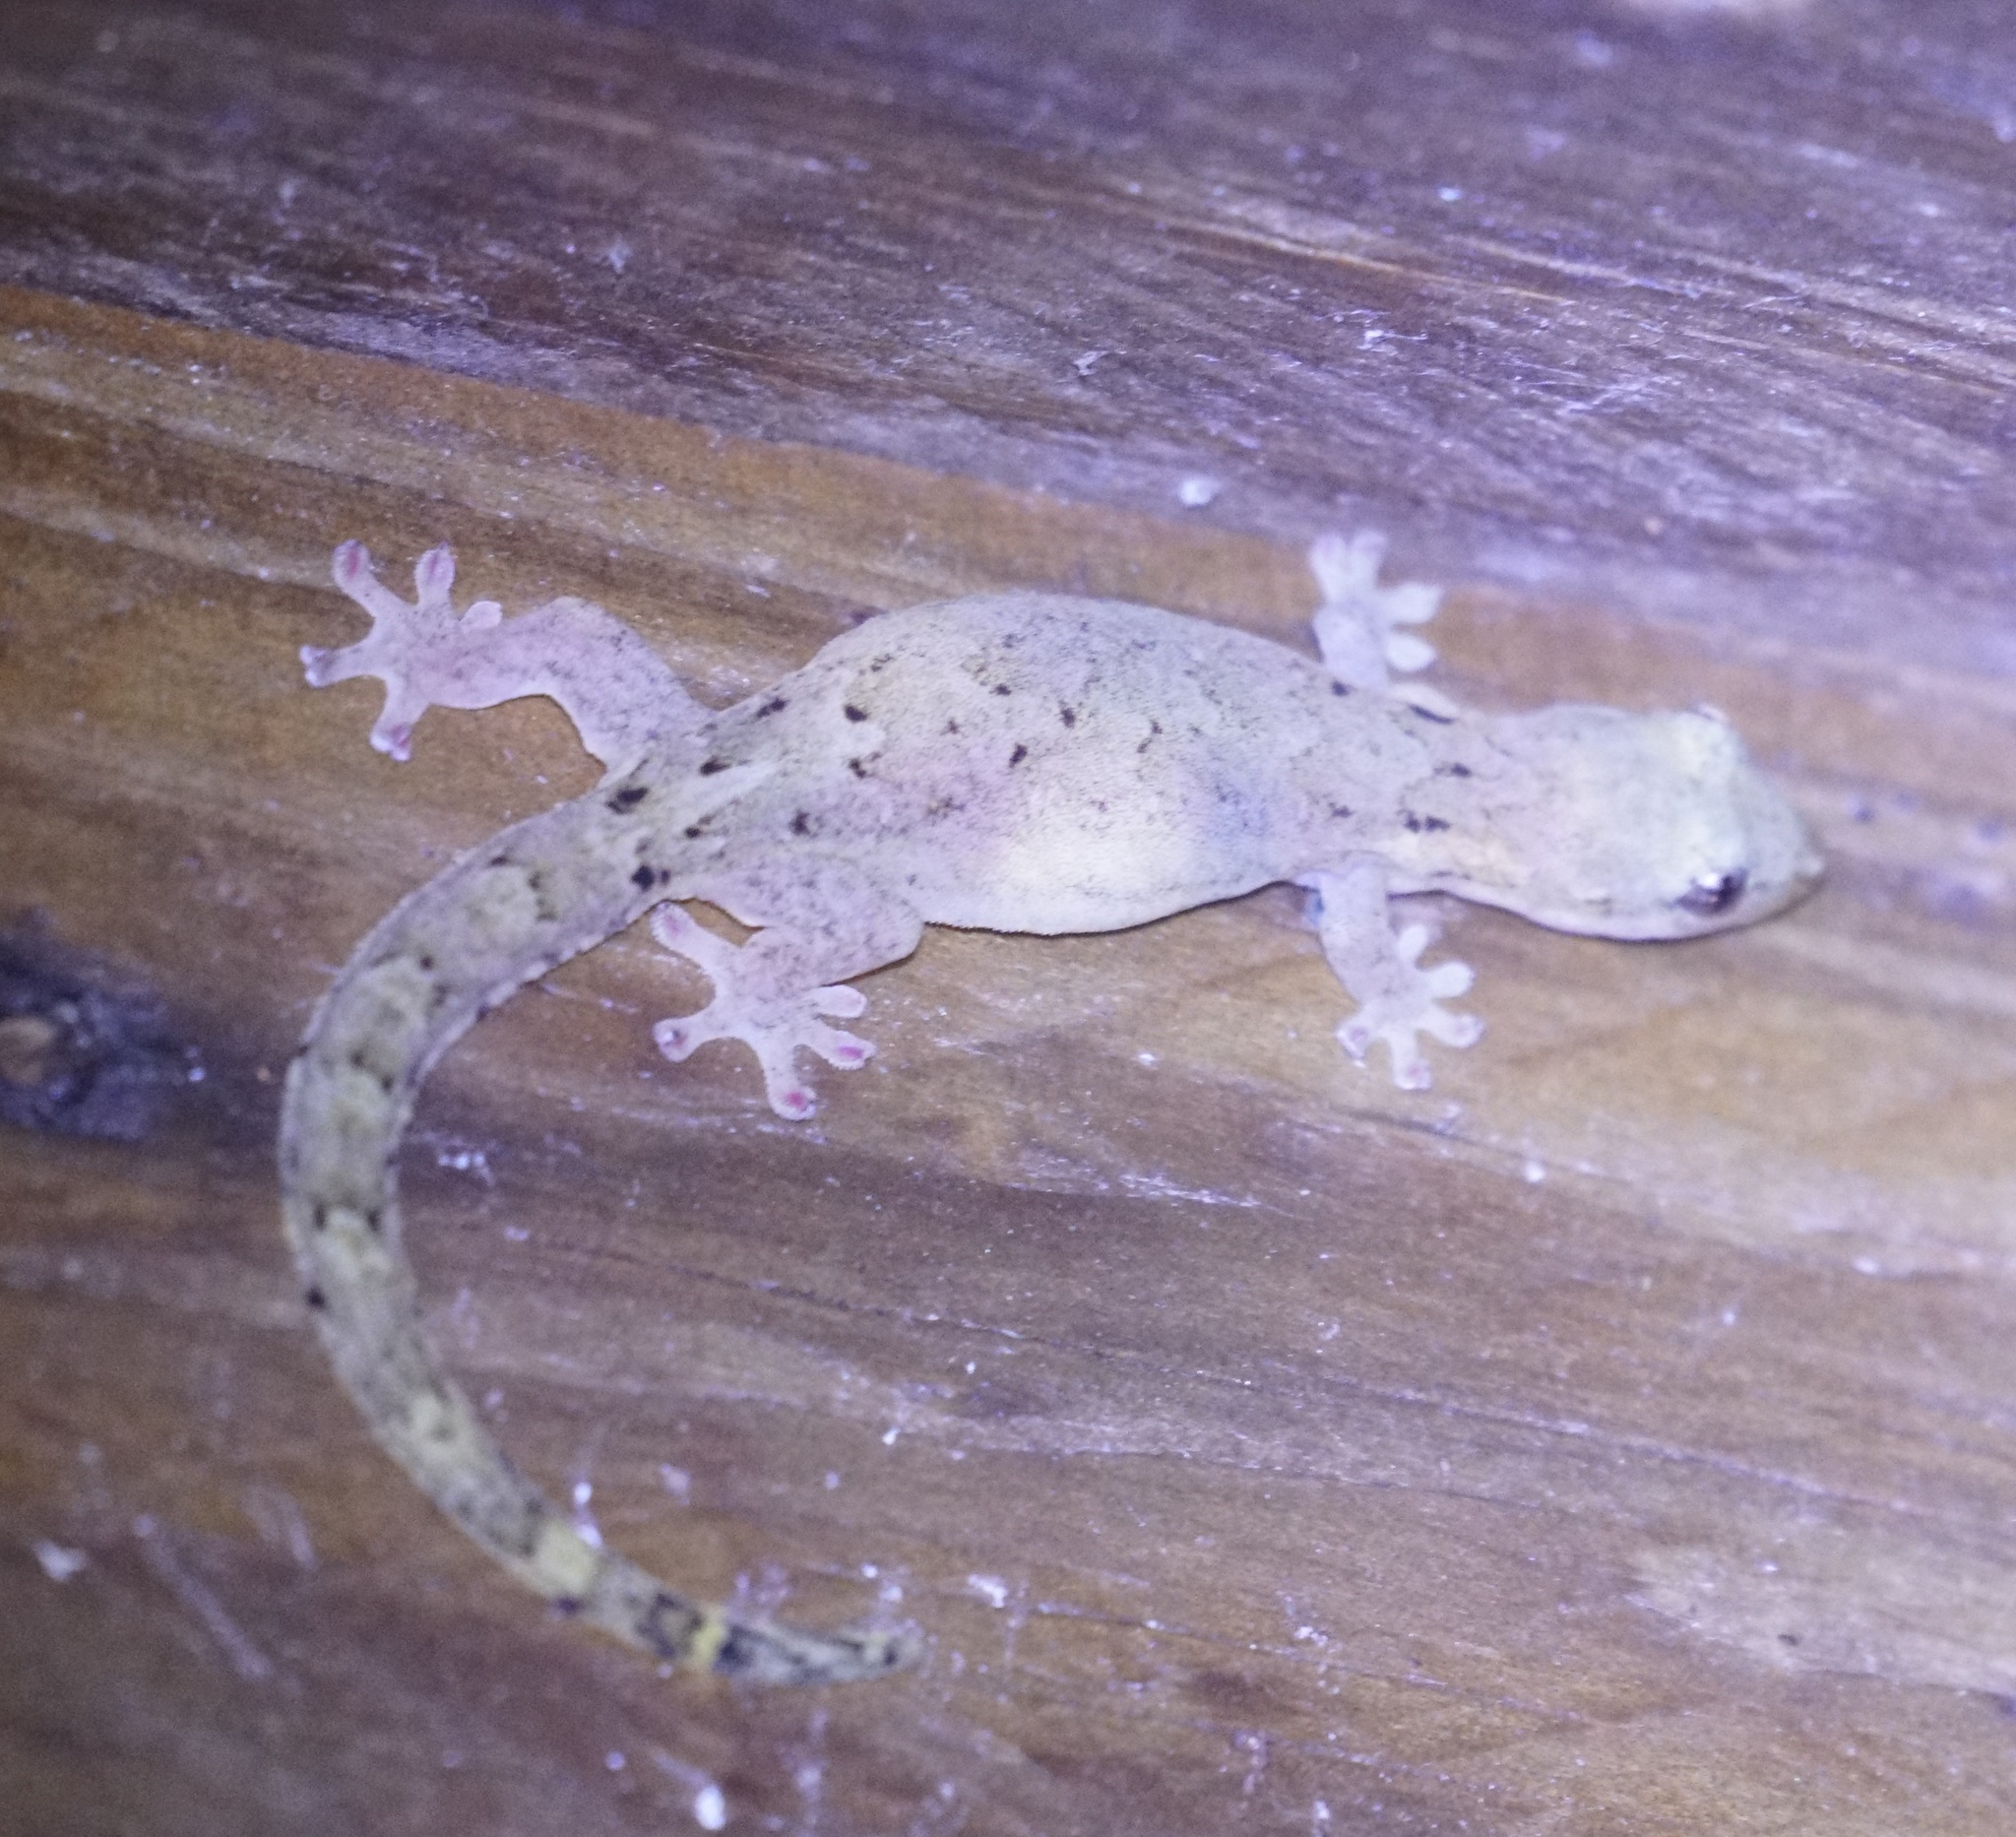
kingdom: Animalia
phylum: Chordata
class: Squamata
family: Gekkonidae
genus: Lepidodactylus
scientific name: Lepidodactylus lugubris
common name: Mourning gecko
